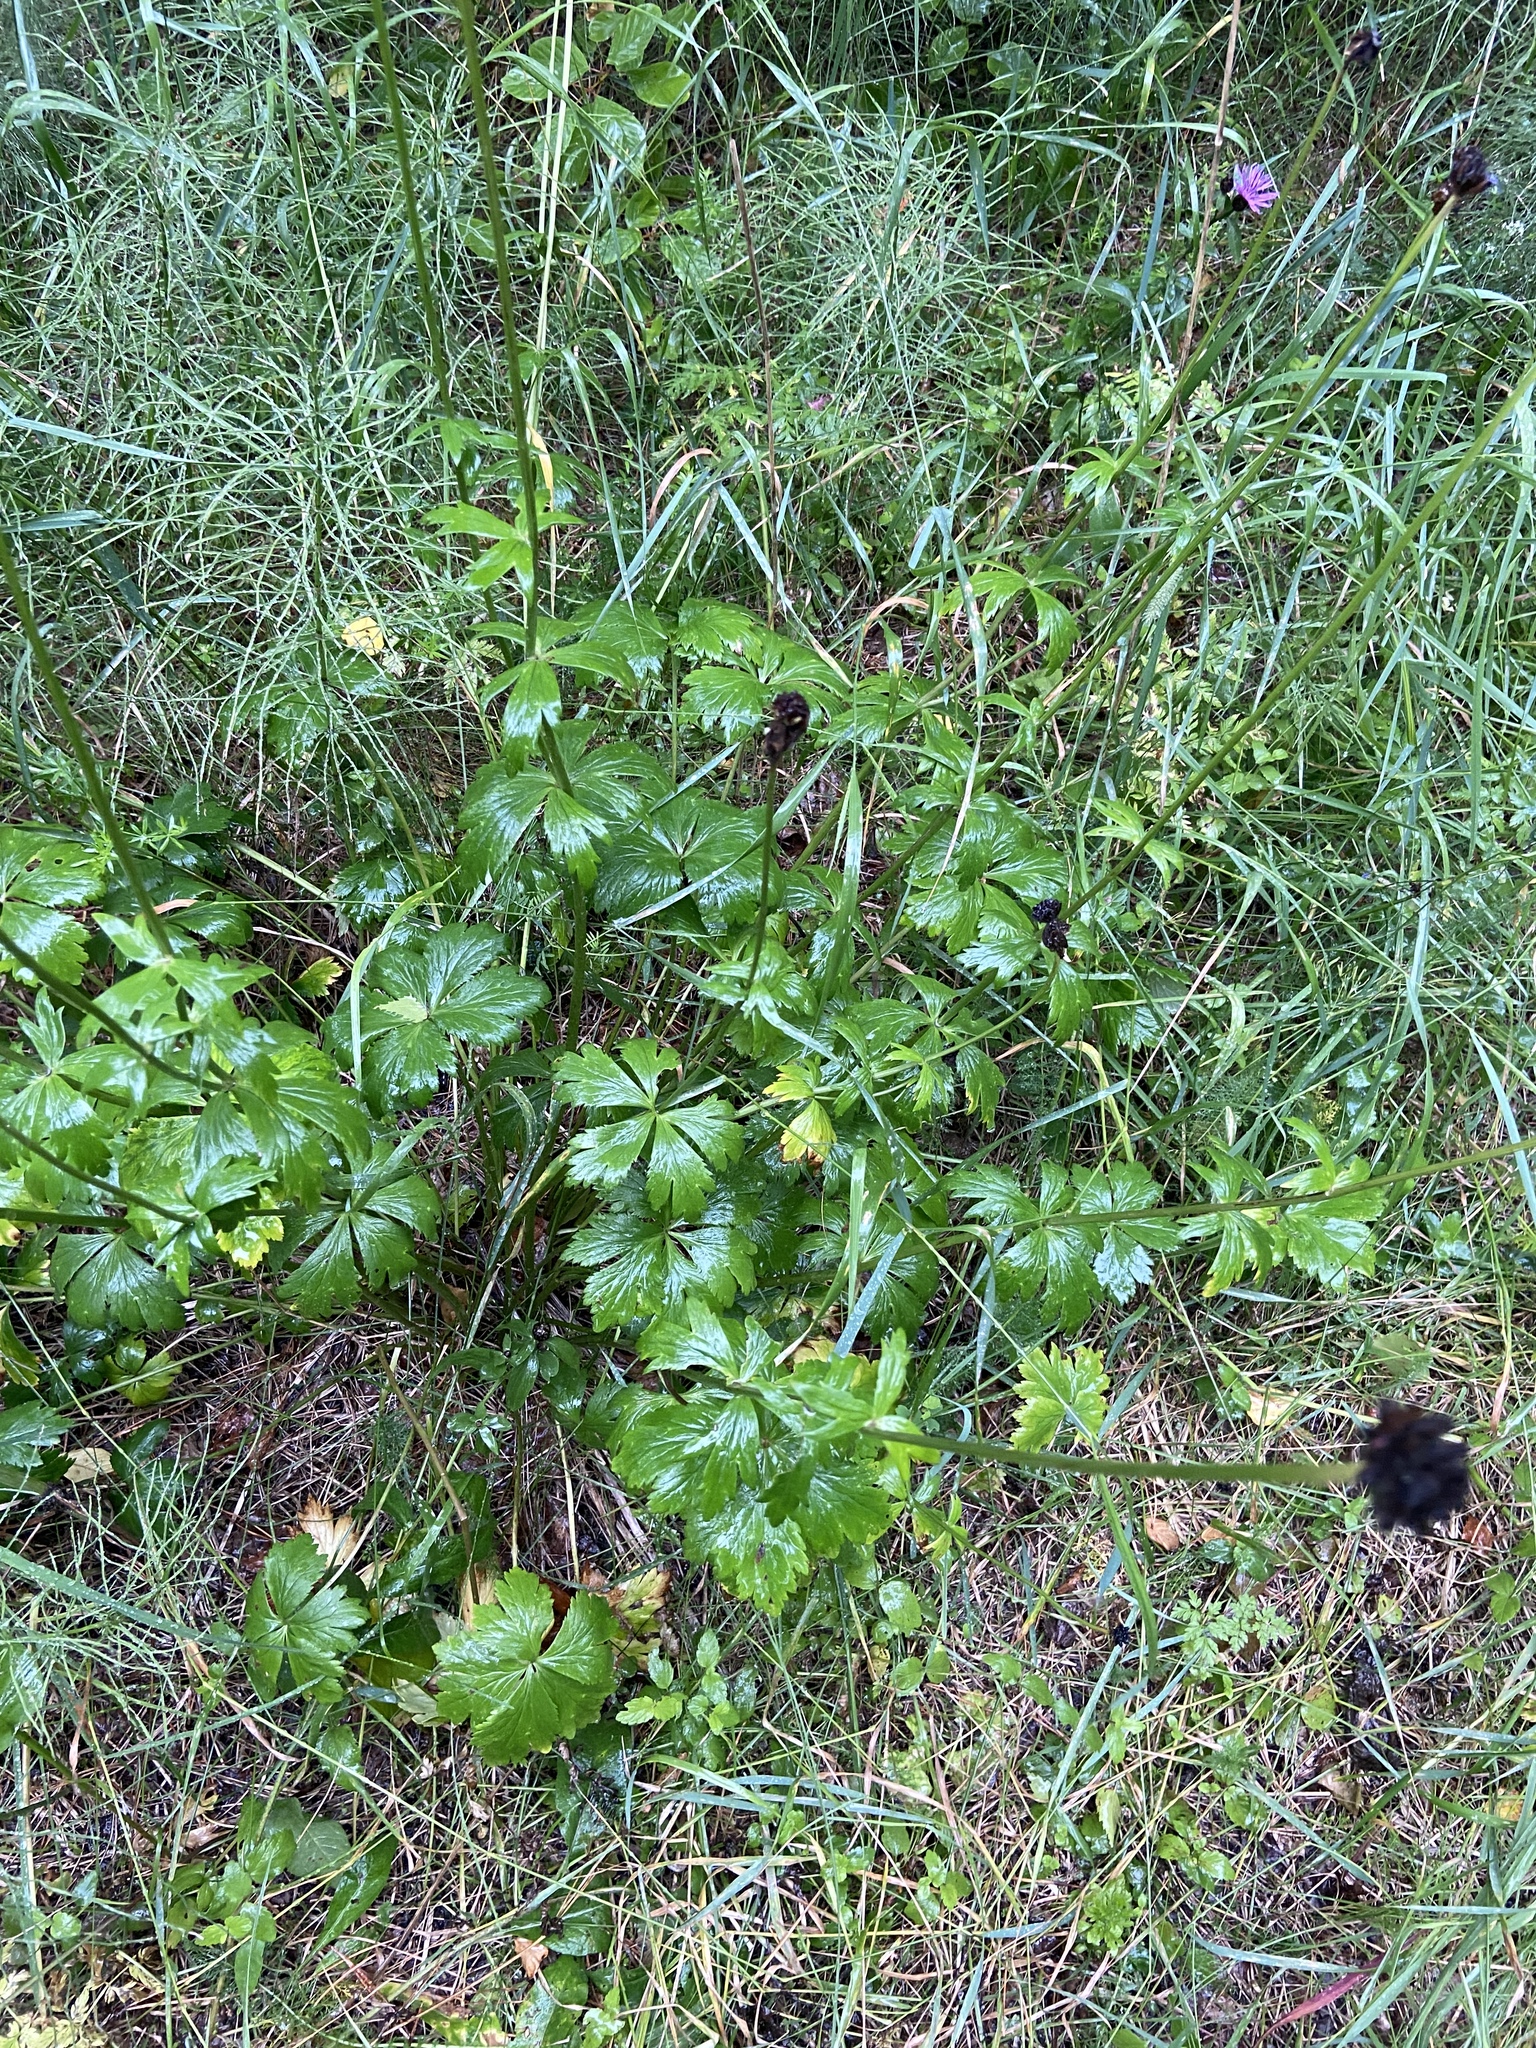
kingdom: Plantae
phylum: Tracheophyta
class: Magnoliopsida
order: Ranunculales
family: Ranunculaceae
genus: Trollius
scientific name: Trollius europaeus
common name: European globeflower
